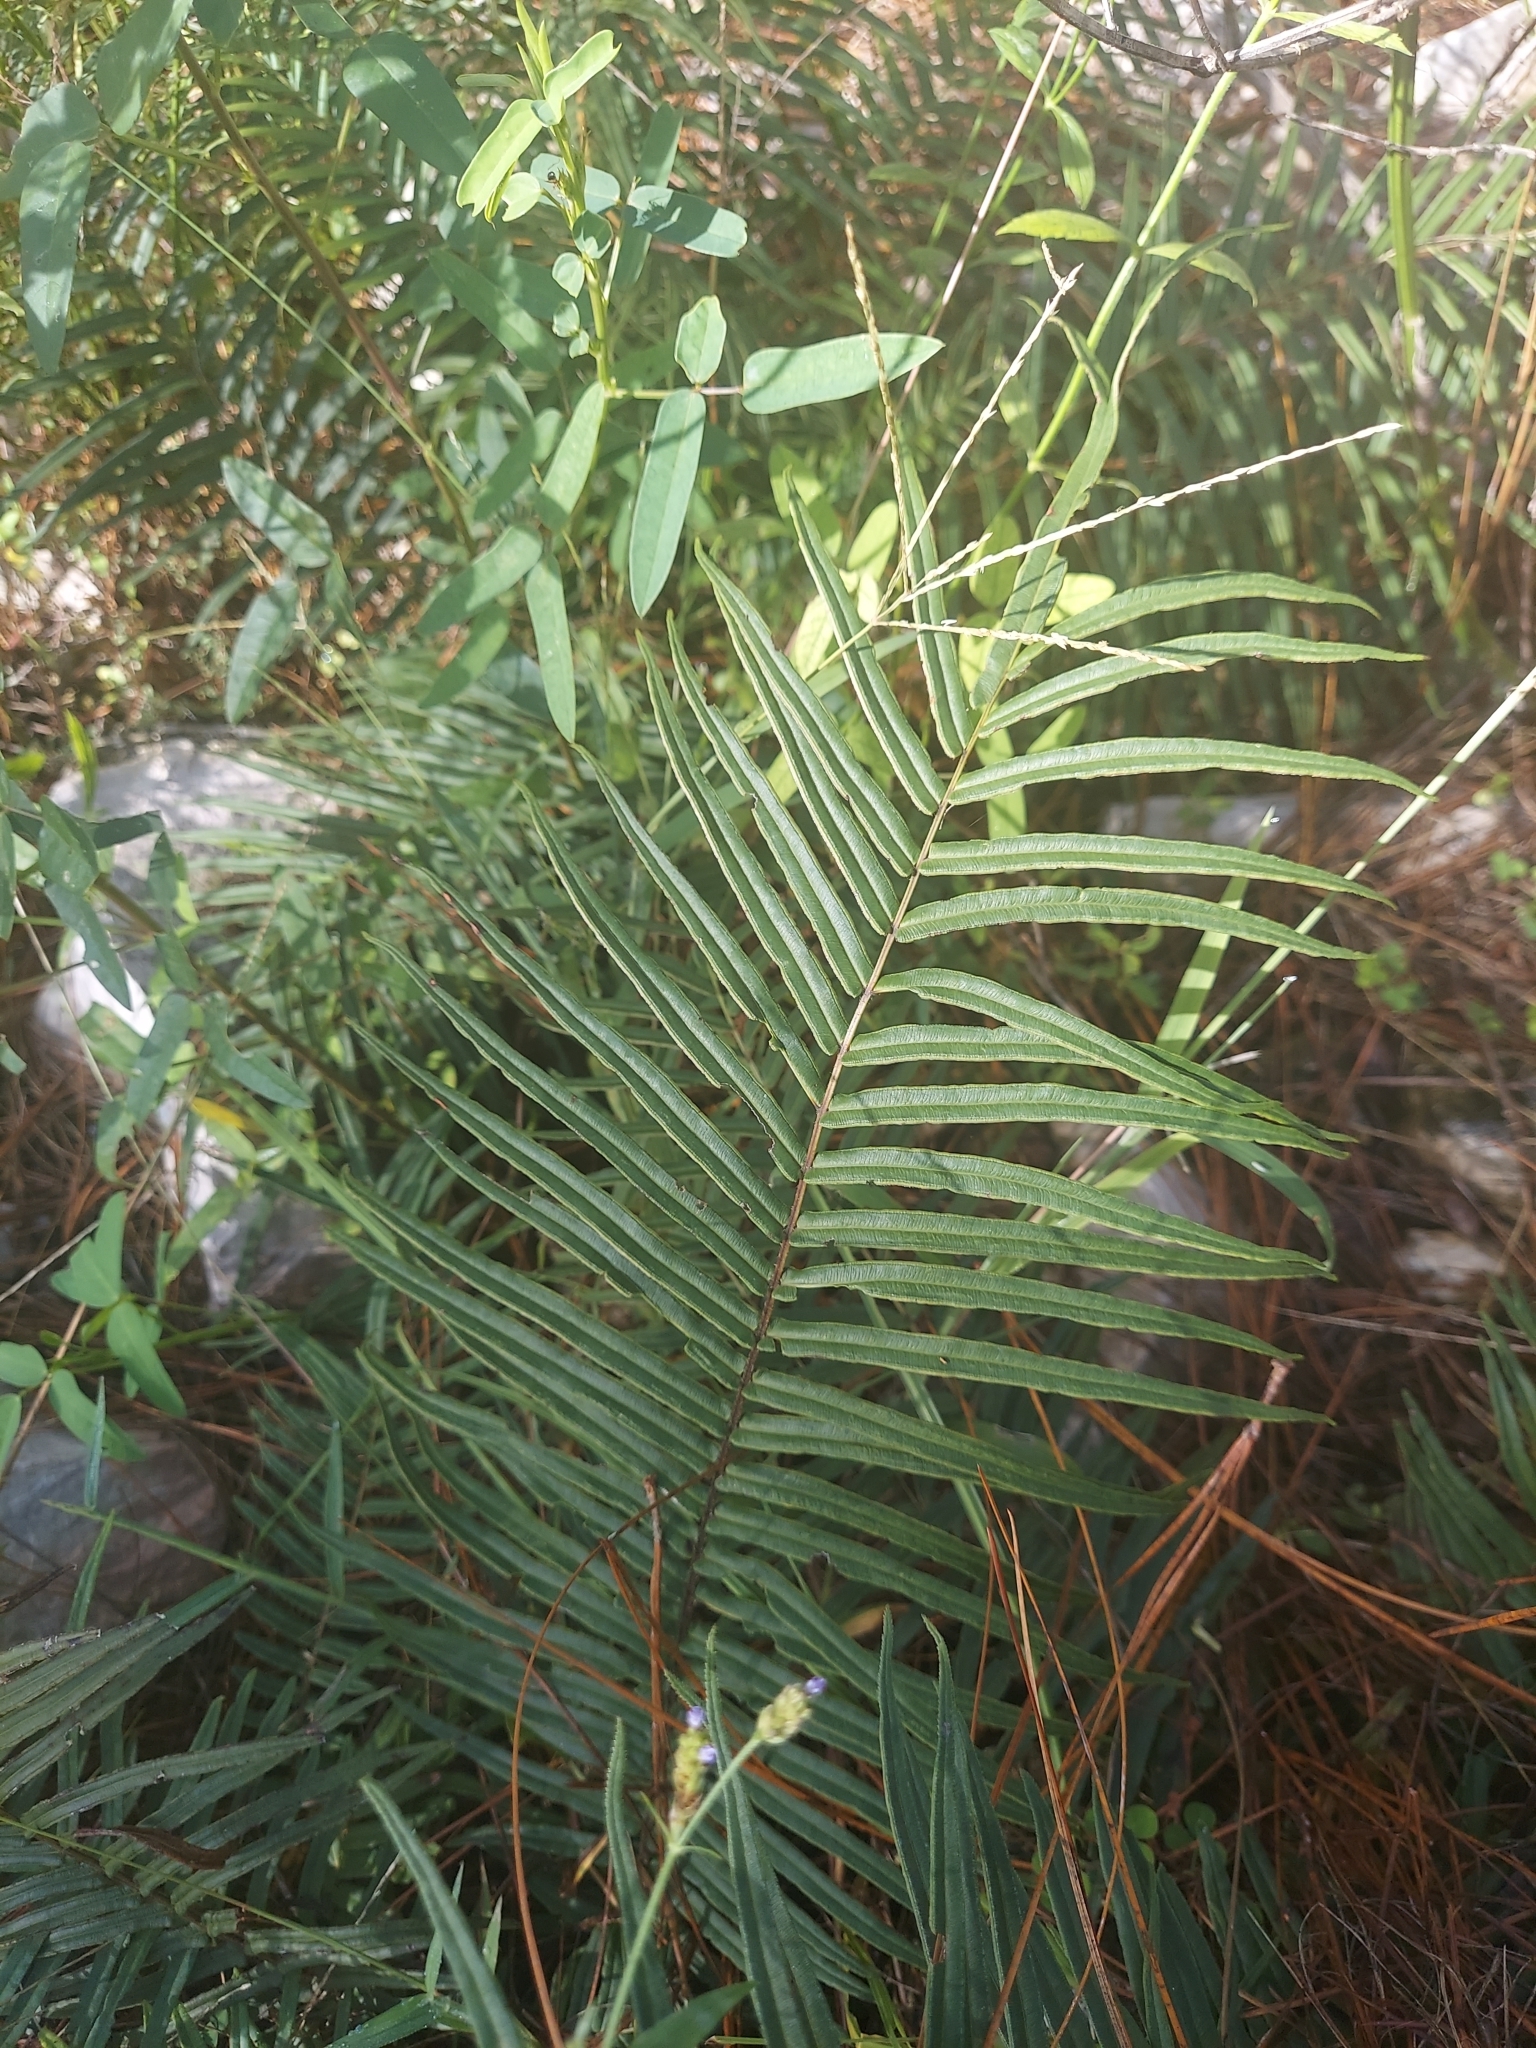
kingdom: Plantae
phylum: Tracheophyta
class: Polypodiopsida
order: Polypodiales
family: Pteridaceae
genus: Pteris
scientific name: Pteris vittata
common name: Ladder brake
